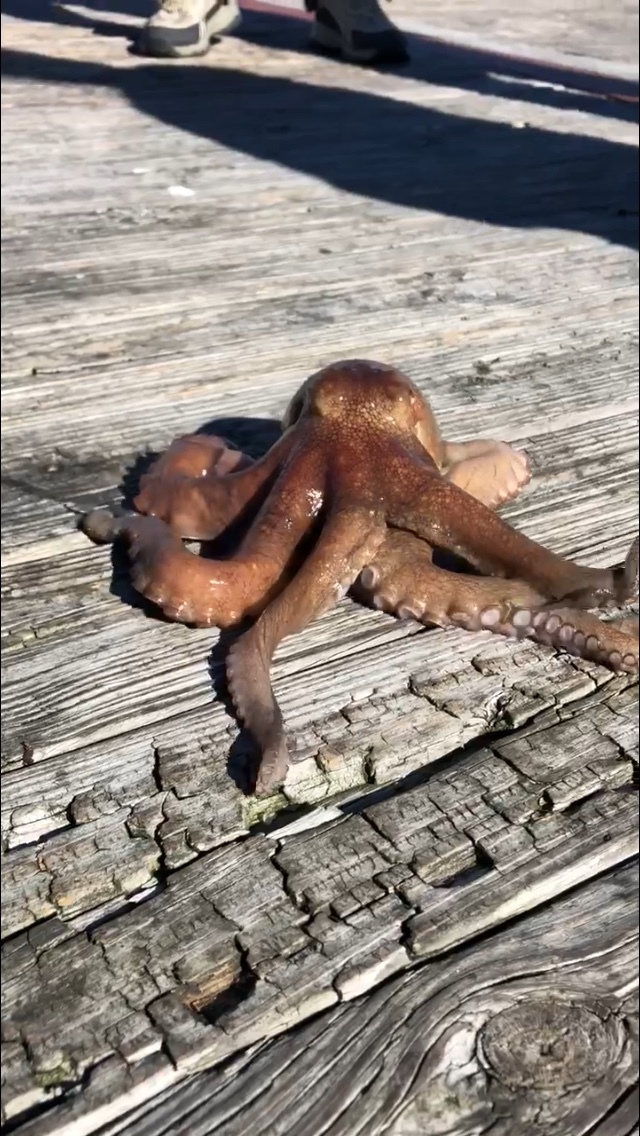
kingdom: Animalia
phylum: Mollusca
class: Cephalopoda
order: Octopoda
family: Octopodidae
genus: Octopus
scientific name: Octopus americanus
